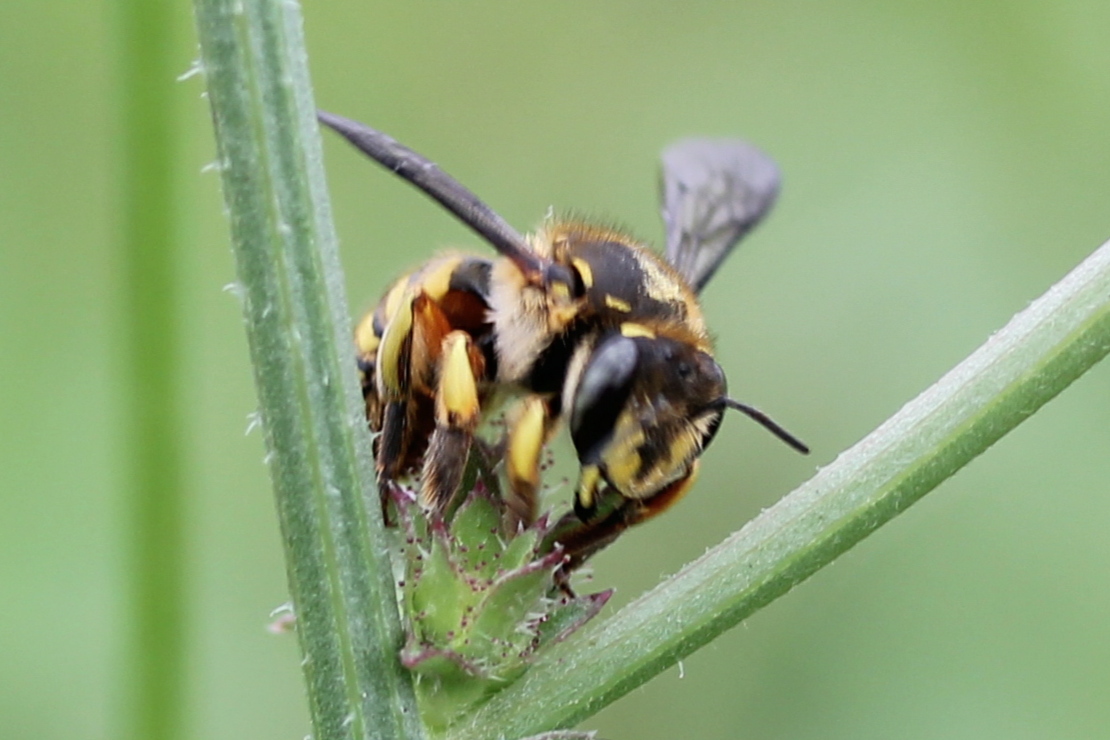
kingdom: Animalia
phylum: Arthropoda
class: Insecta
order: Hymenoptera
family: Megachilidae
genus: Anthidium
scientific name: Anthidium manicatum
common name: Wool carder bee
